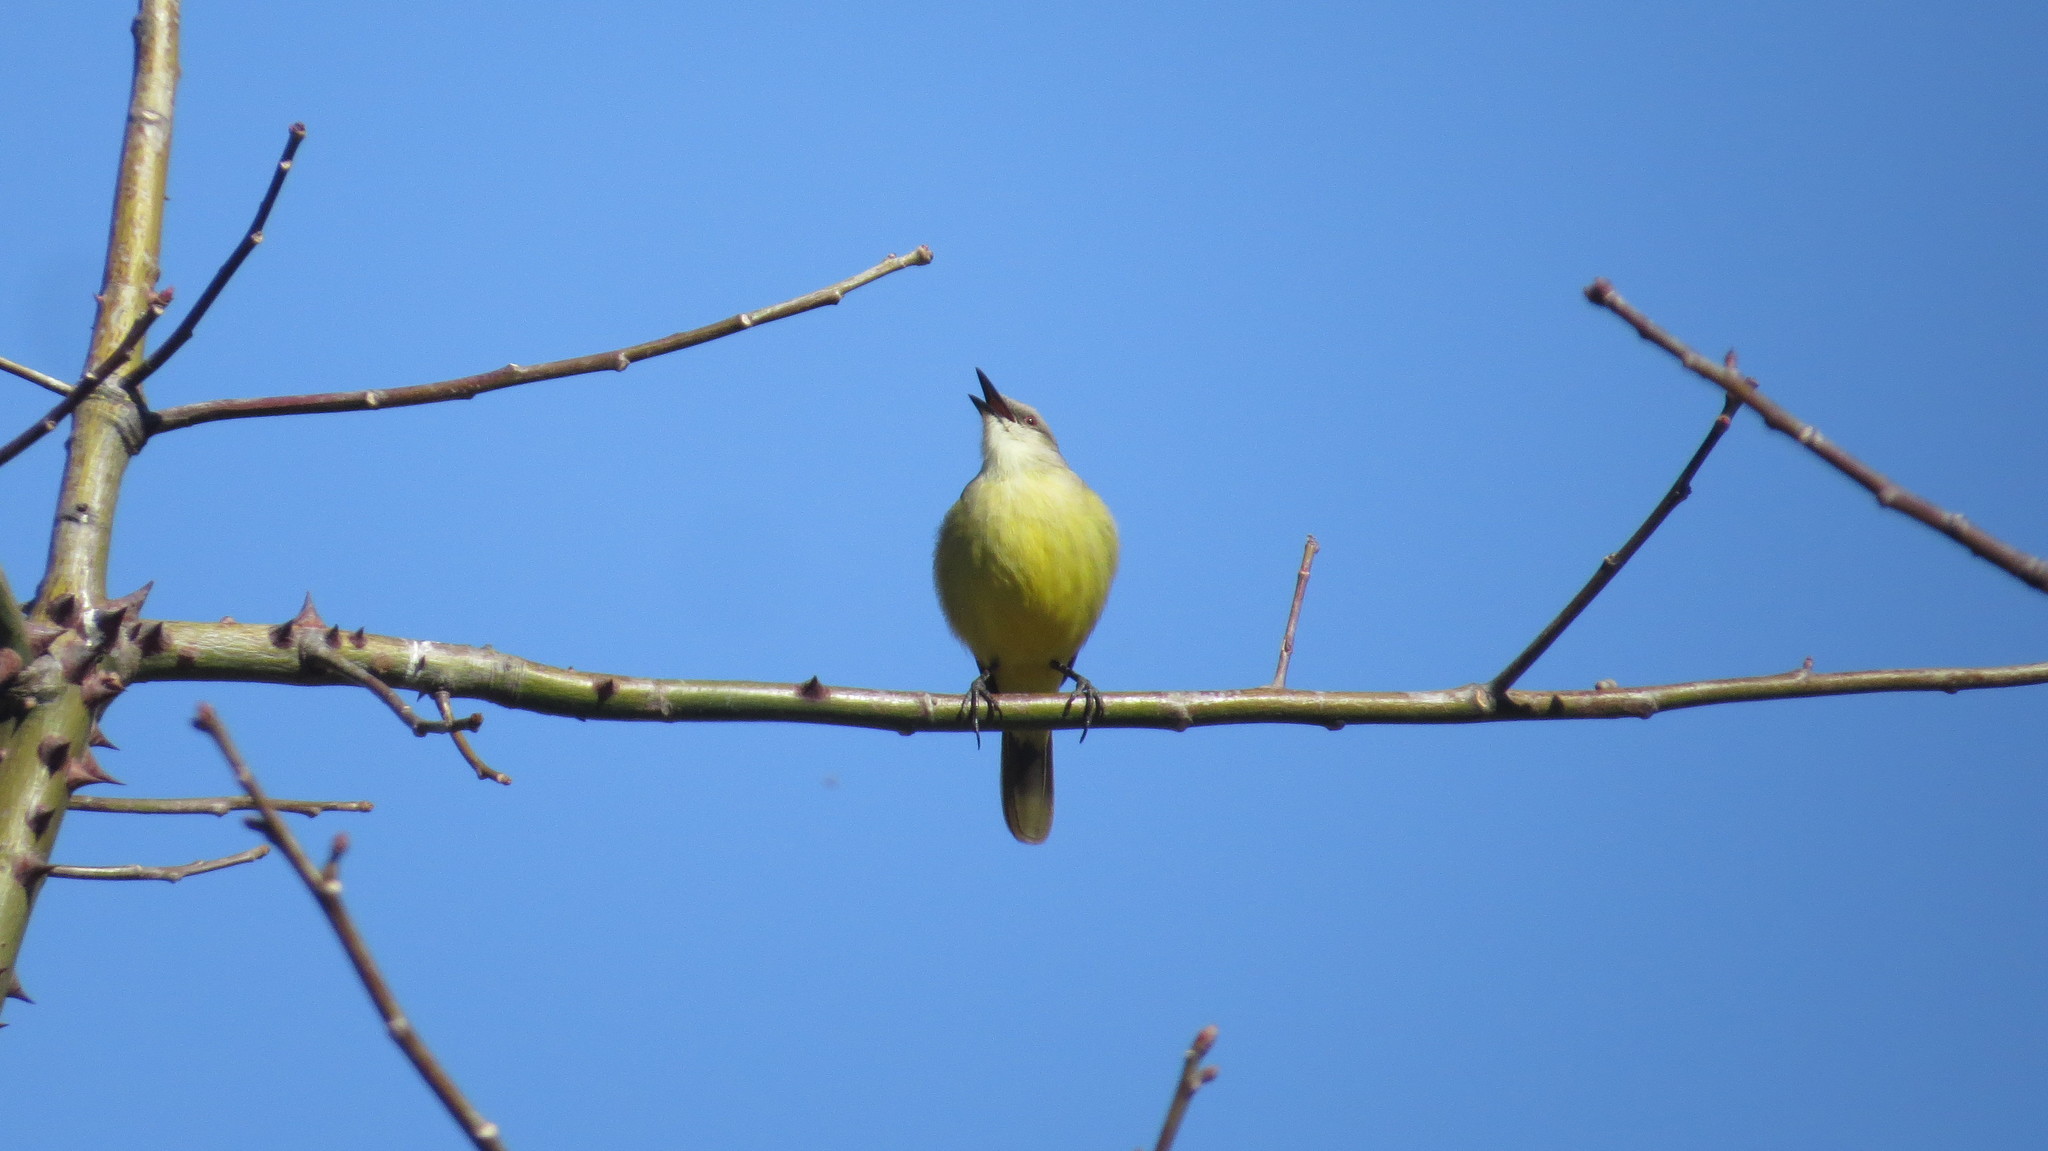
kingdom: Animalia
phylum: Chordata
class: Aves
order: Passeriformes
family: Tyrannidae
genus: Machetornis
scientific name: Machetornis rixosa
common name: Cattle tyrant
